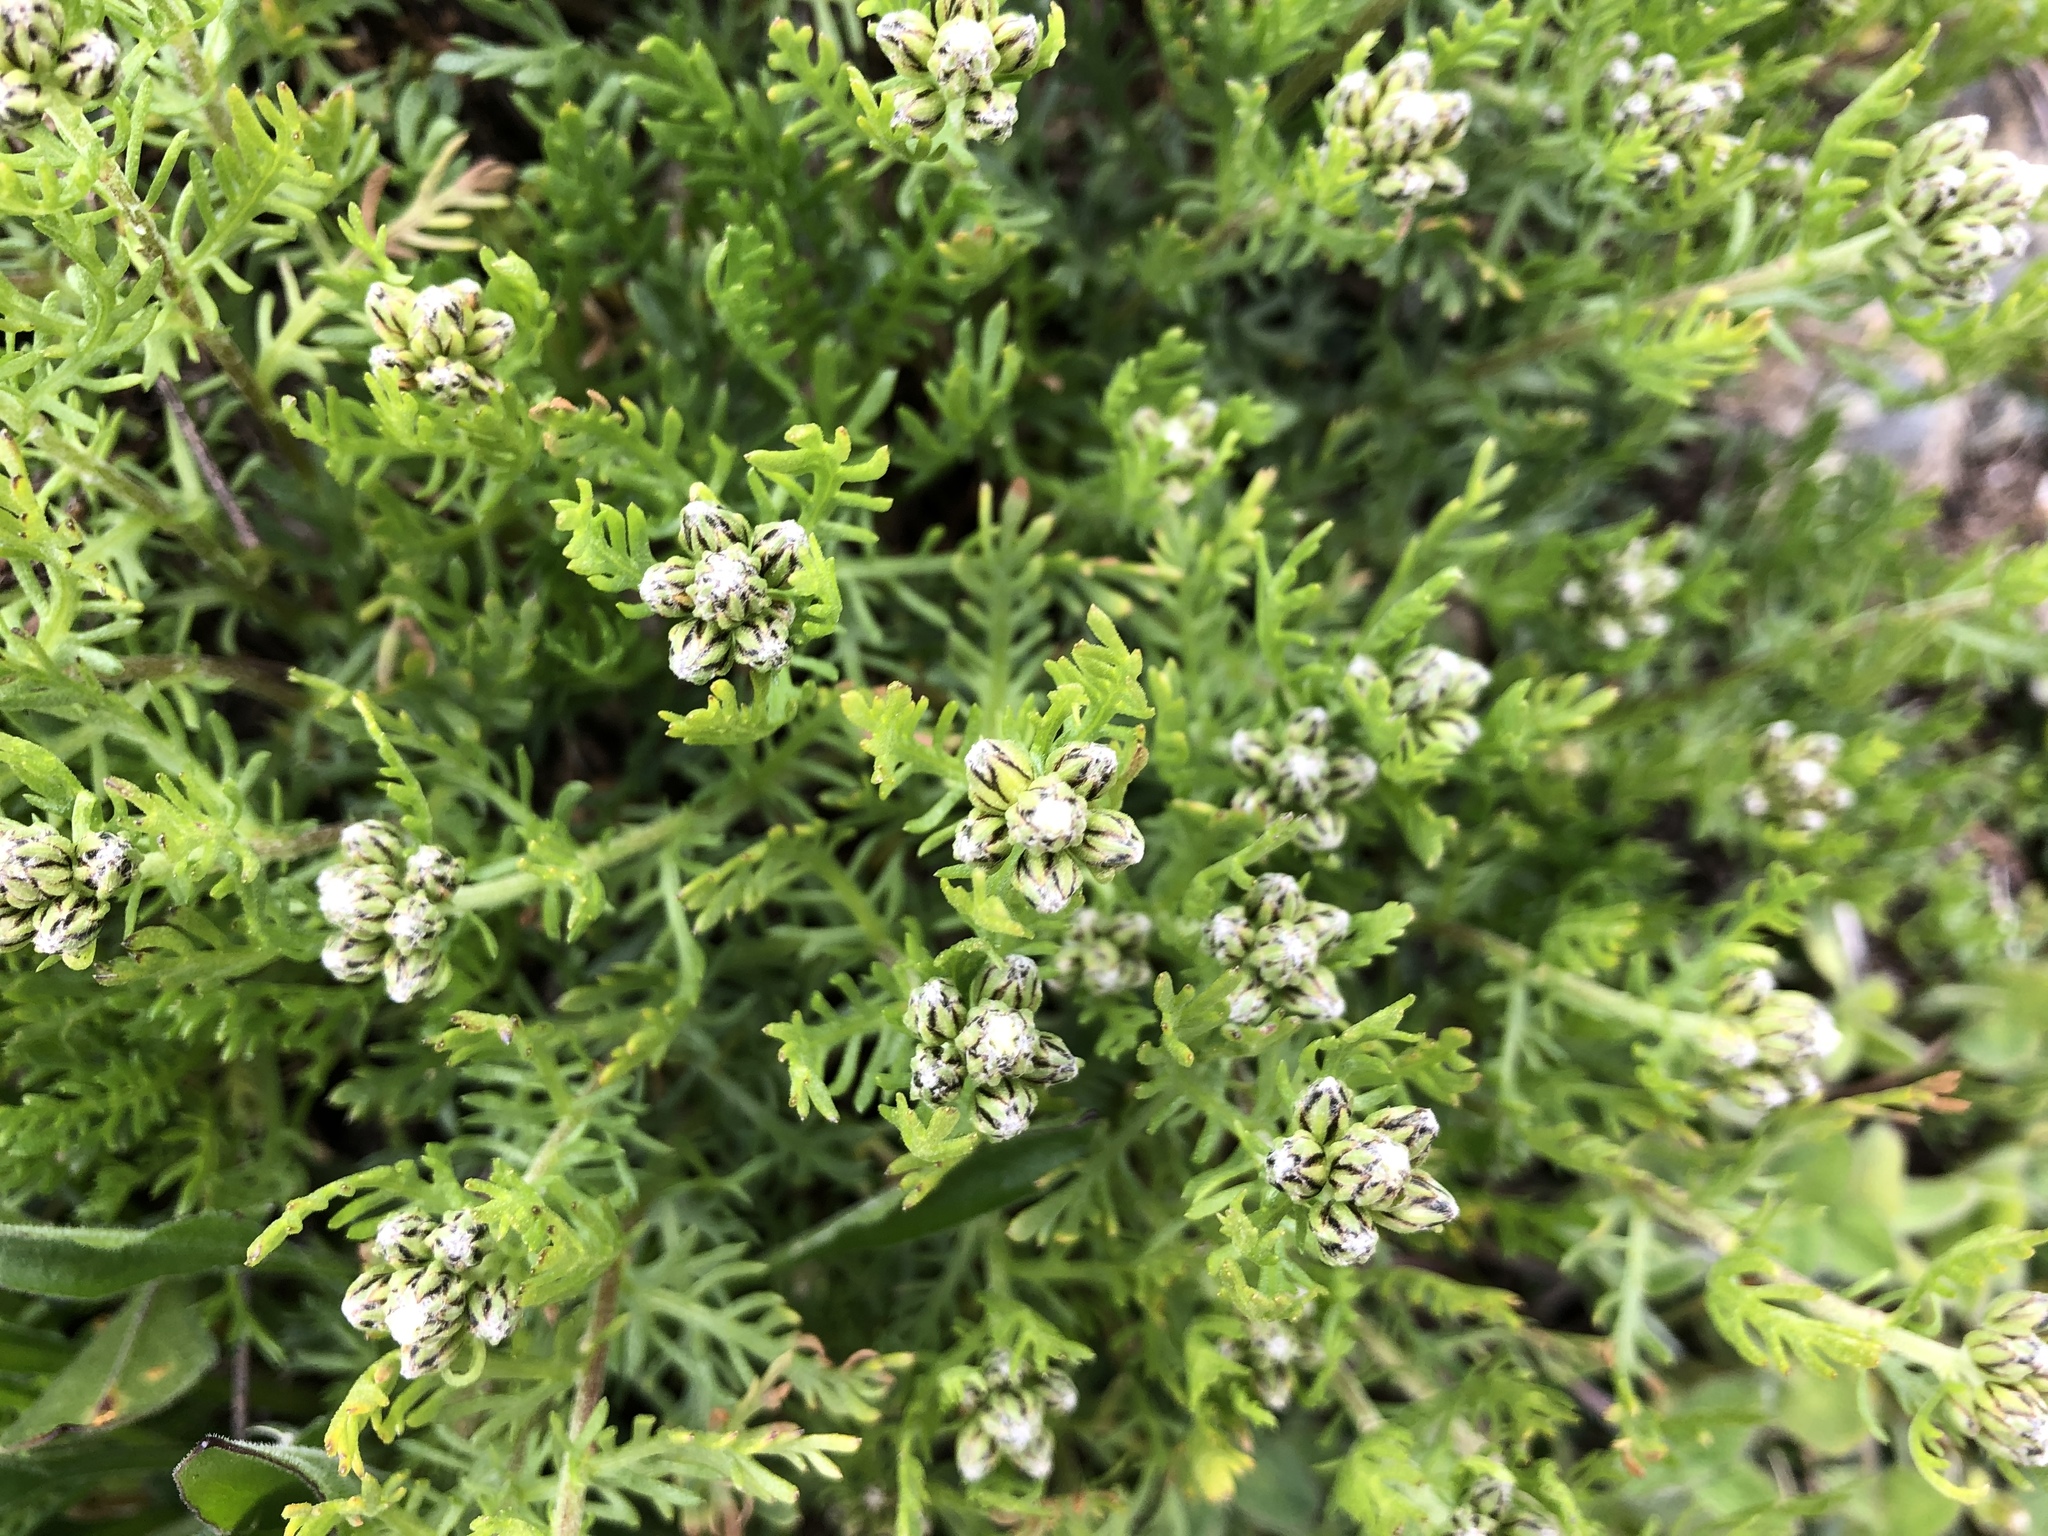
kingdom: Plantae
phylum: Tracheophyta
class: Magnoliopsida
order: Asterales
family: Asteraceae
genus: Achillea
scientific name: Achillea erba-rotta
